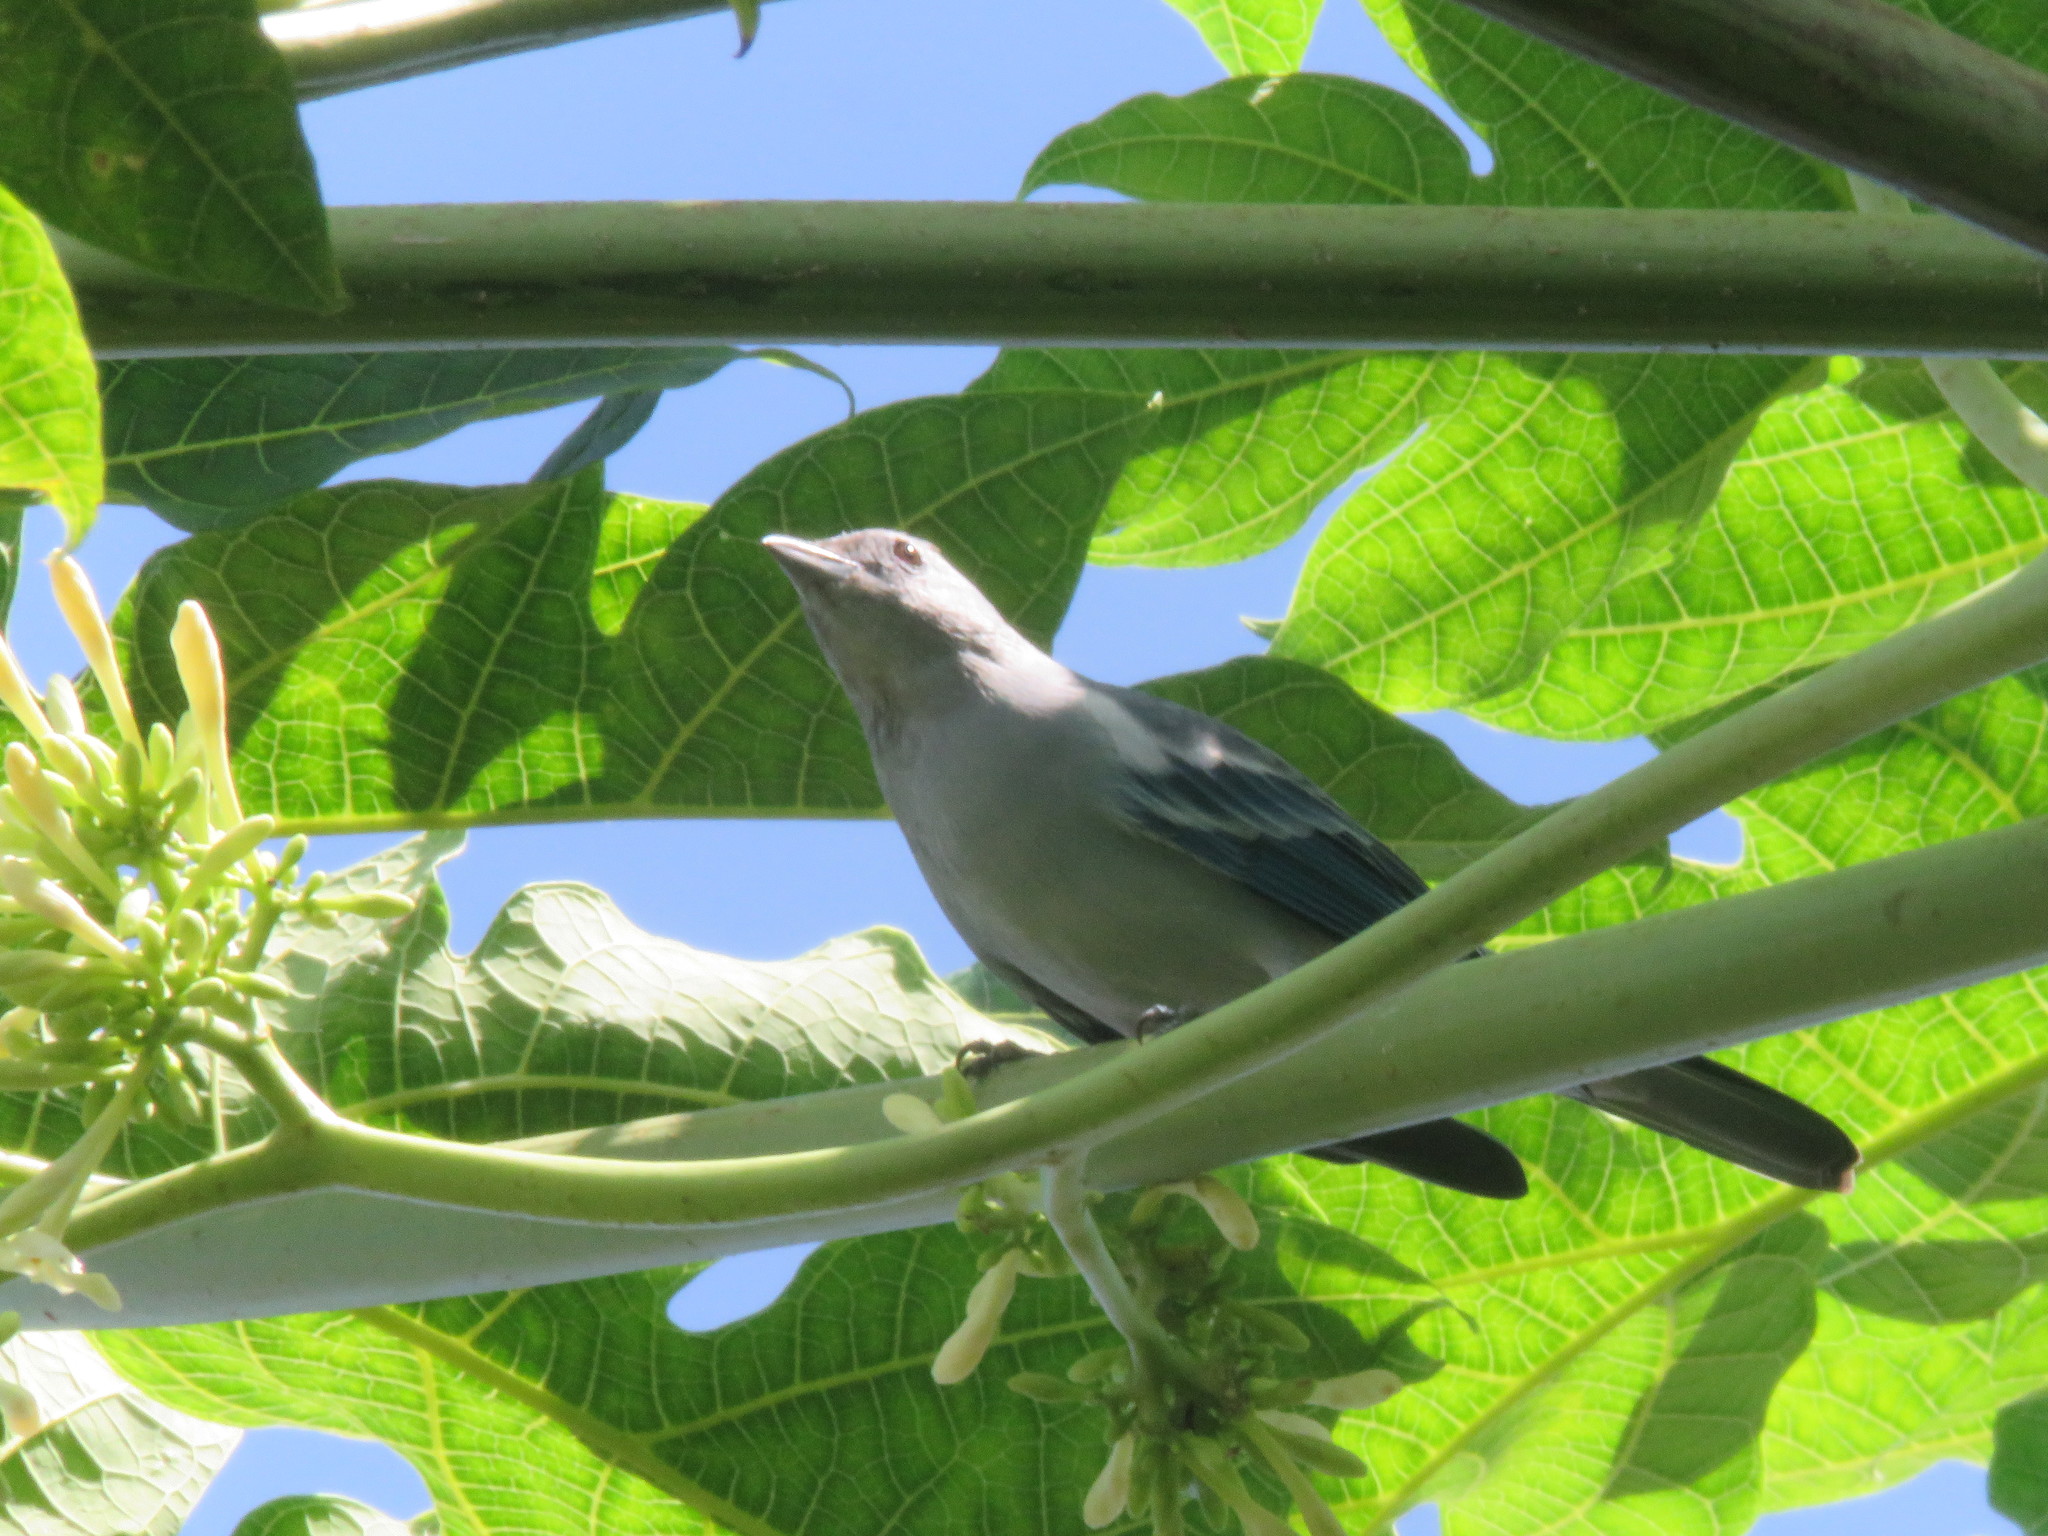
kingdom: Animalia
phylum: Chordata
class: Aves
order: Passeriformes
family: Thraupidae
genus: Thraupis
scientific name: Thraupis episcopus
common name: Blue-grey tanager
